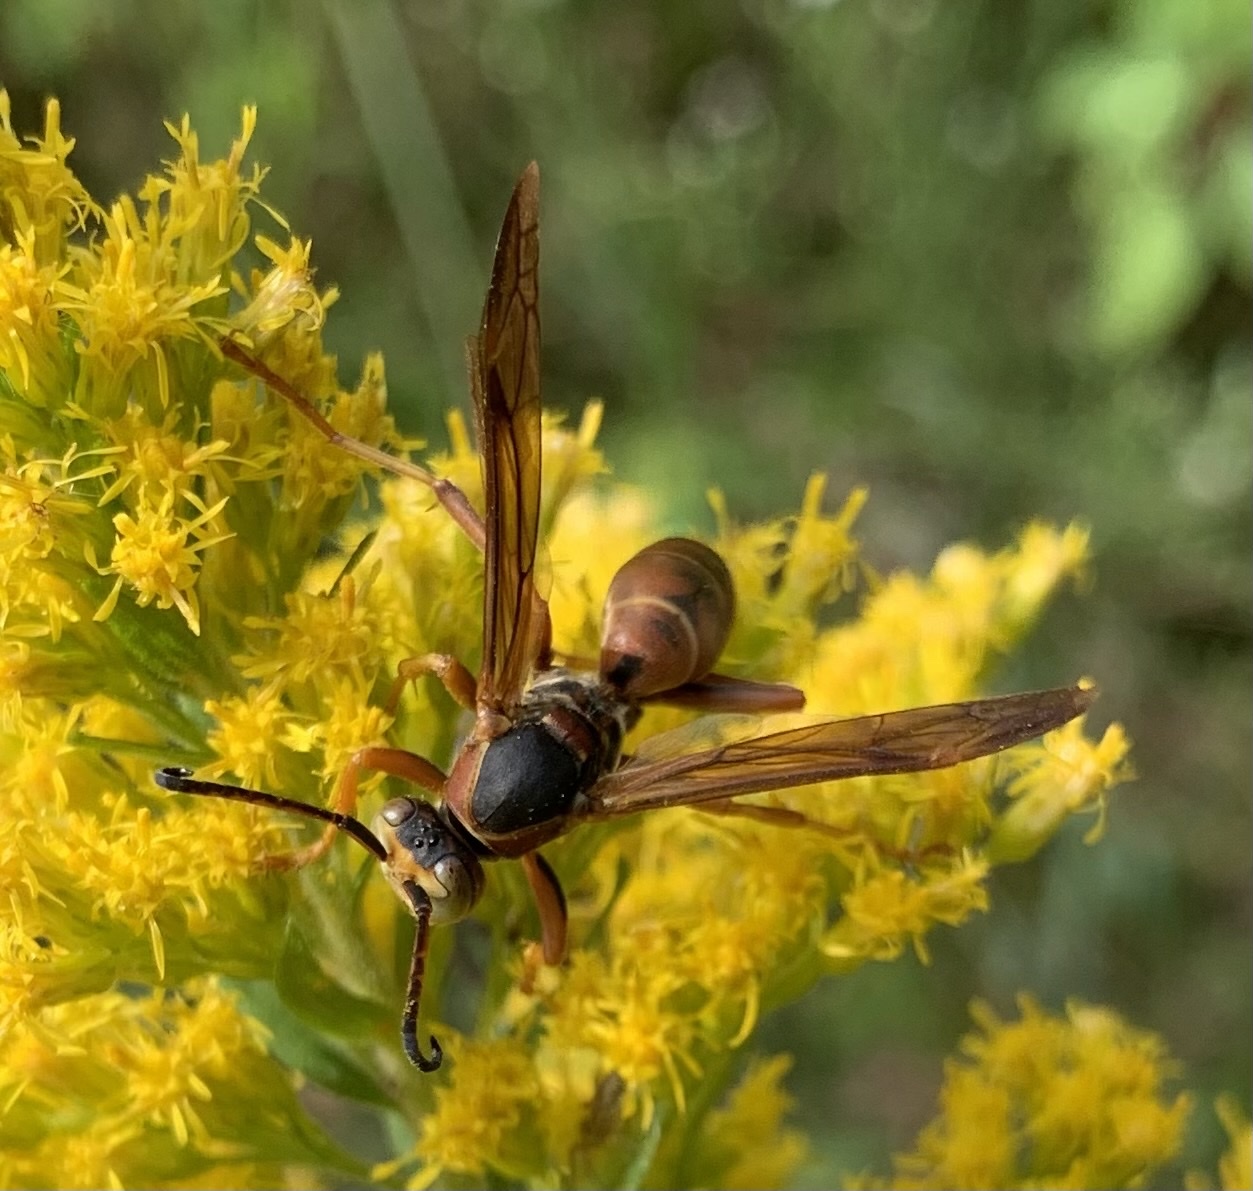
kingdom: Animalia
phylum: Arthropoda
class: Insecta
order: Hymenoptera
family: Eumenidae
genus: Polistes
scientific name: Polistes fuscatus
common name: Dark paper wasp
